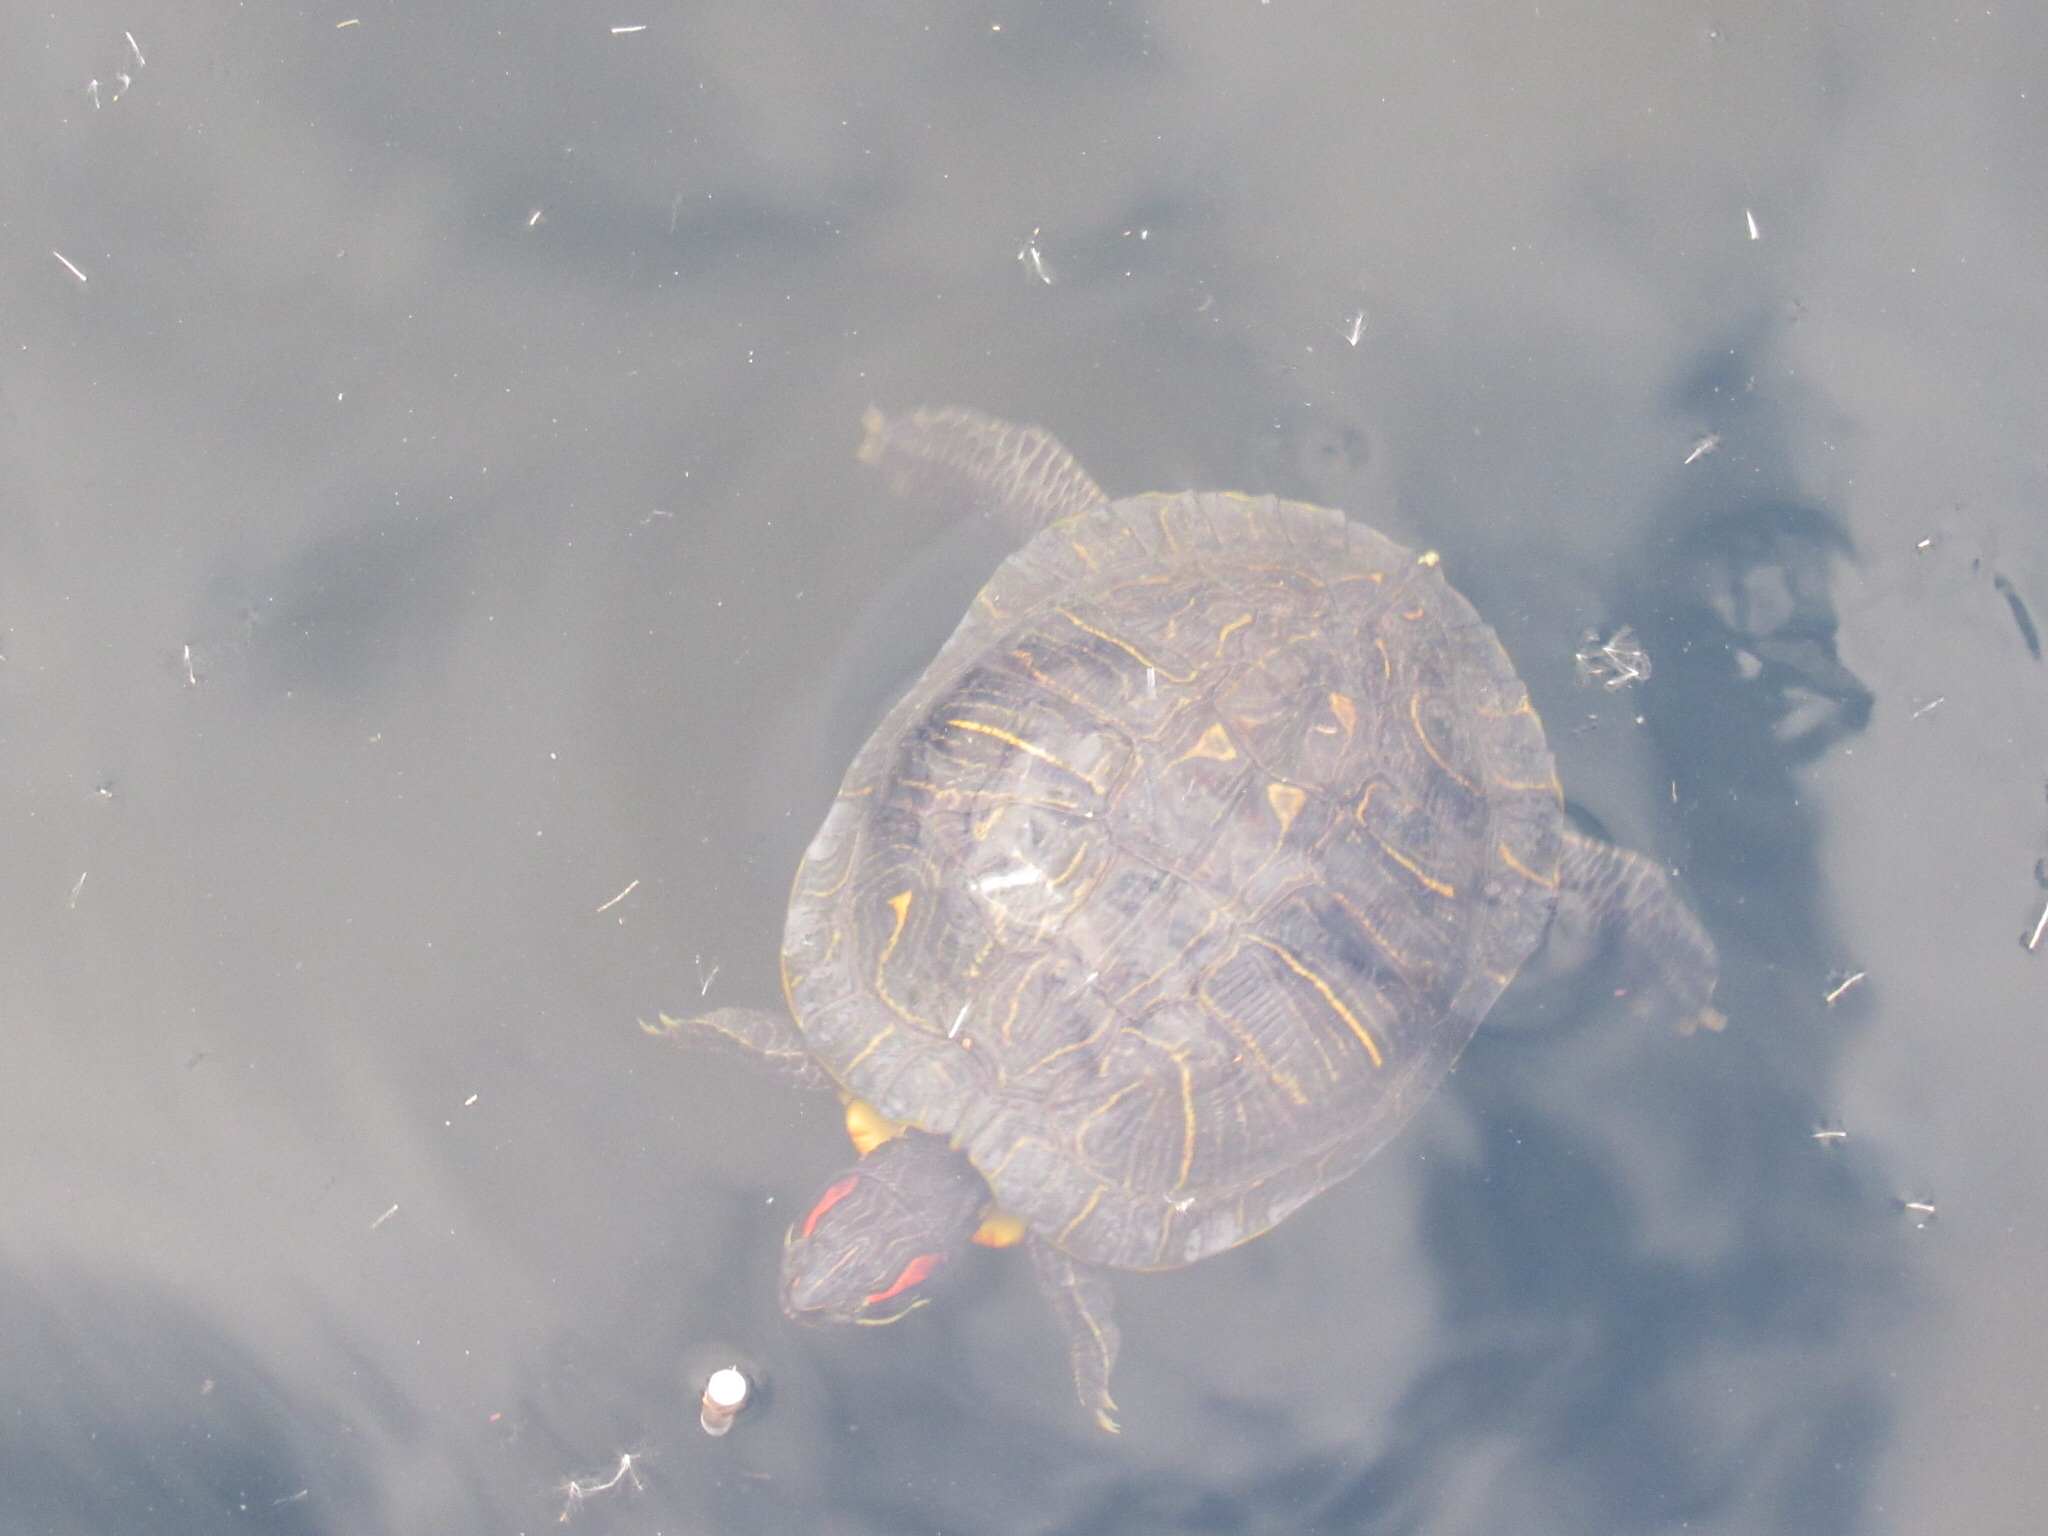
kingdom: Animalia
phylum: Chordata
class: Testudines
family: Emydidae
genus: Trachemys
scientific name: Trachemys scripta
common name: Slider
